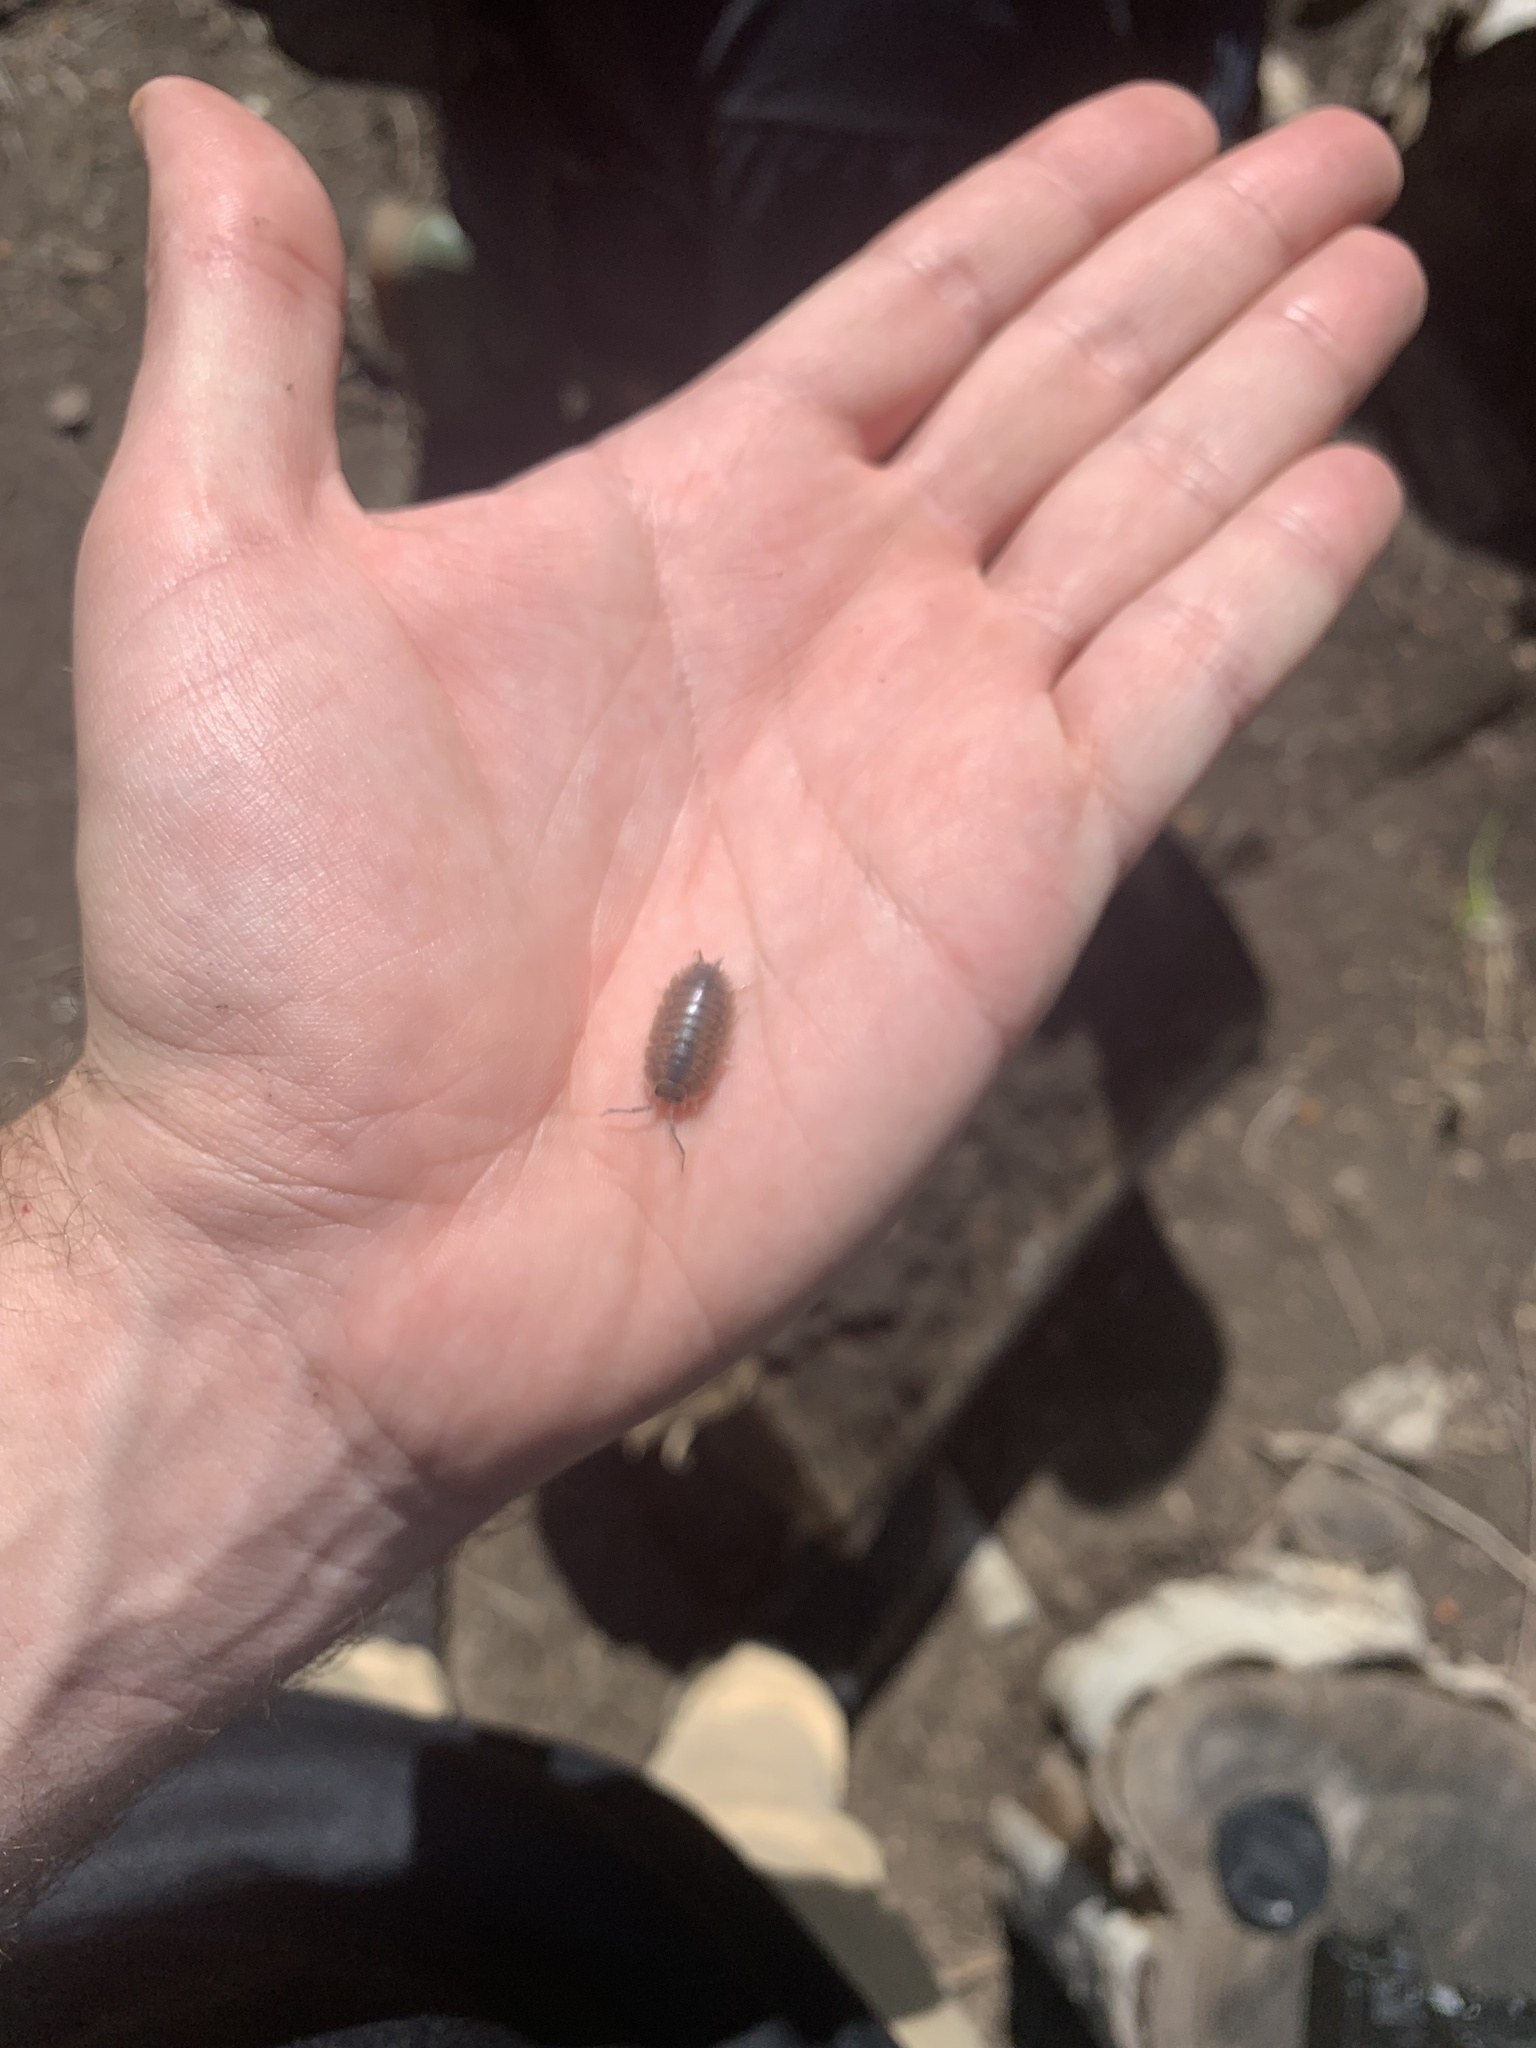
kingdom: Animalia
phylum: Arthropoda
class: Malacostraca
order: Isopoda
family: Porcellionidae
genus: Porcellio
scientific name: Porcellio laevis
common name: Swift woodlouse
